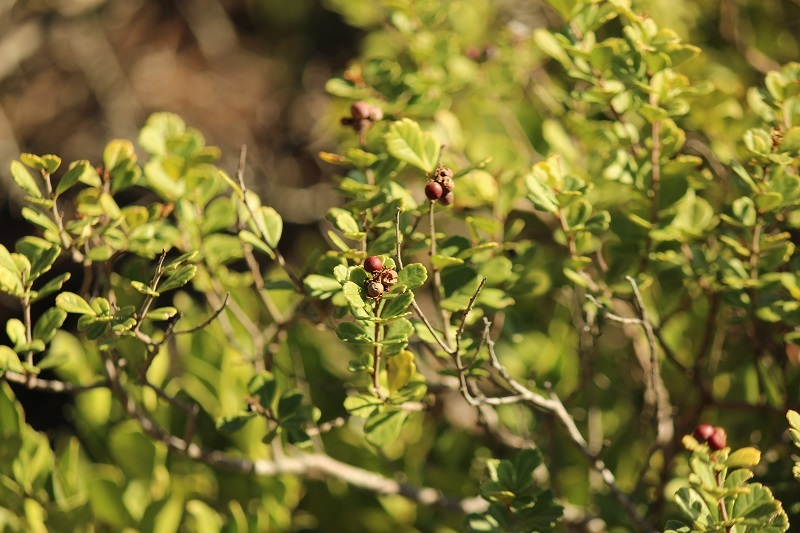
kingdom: Plantae
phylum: Tracheophyta
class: Magnoliopsida
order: Sapindales
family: Anacardiaceae
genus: Searsia
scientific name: Searsia crenata
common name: Crowberry
